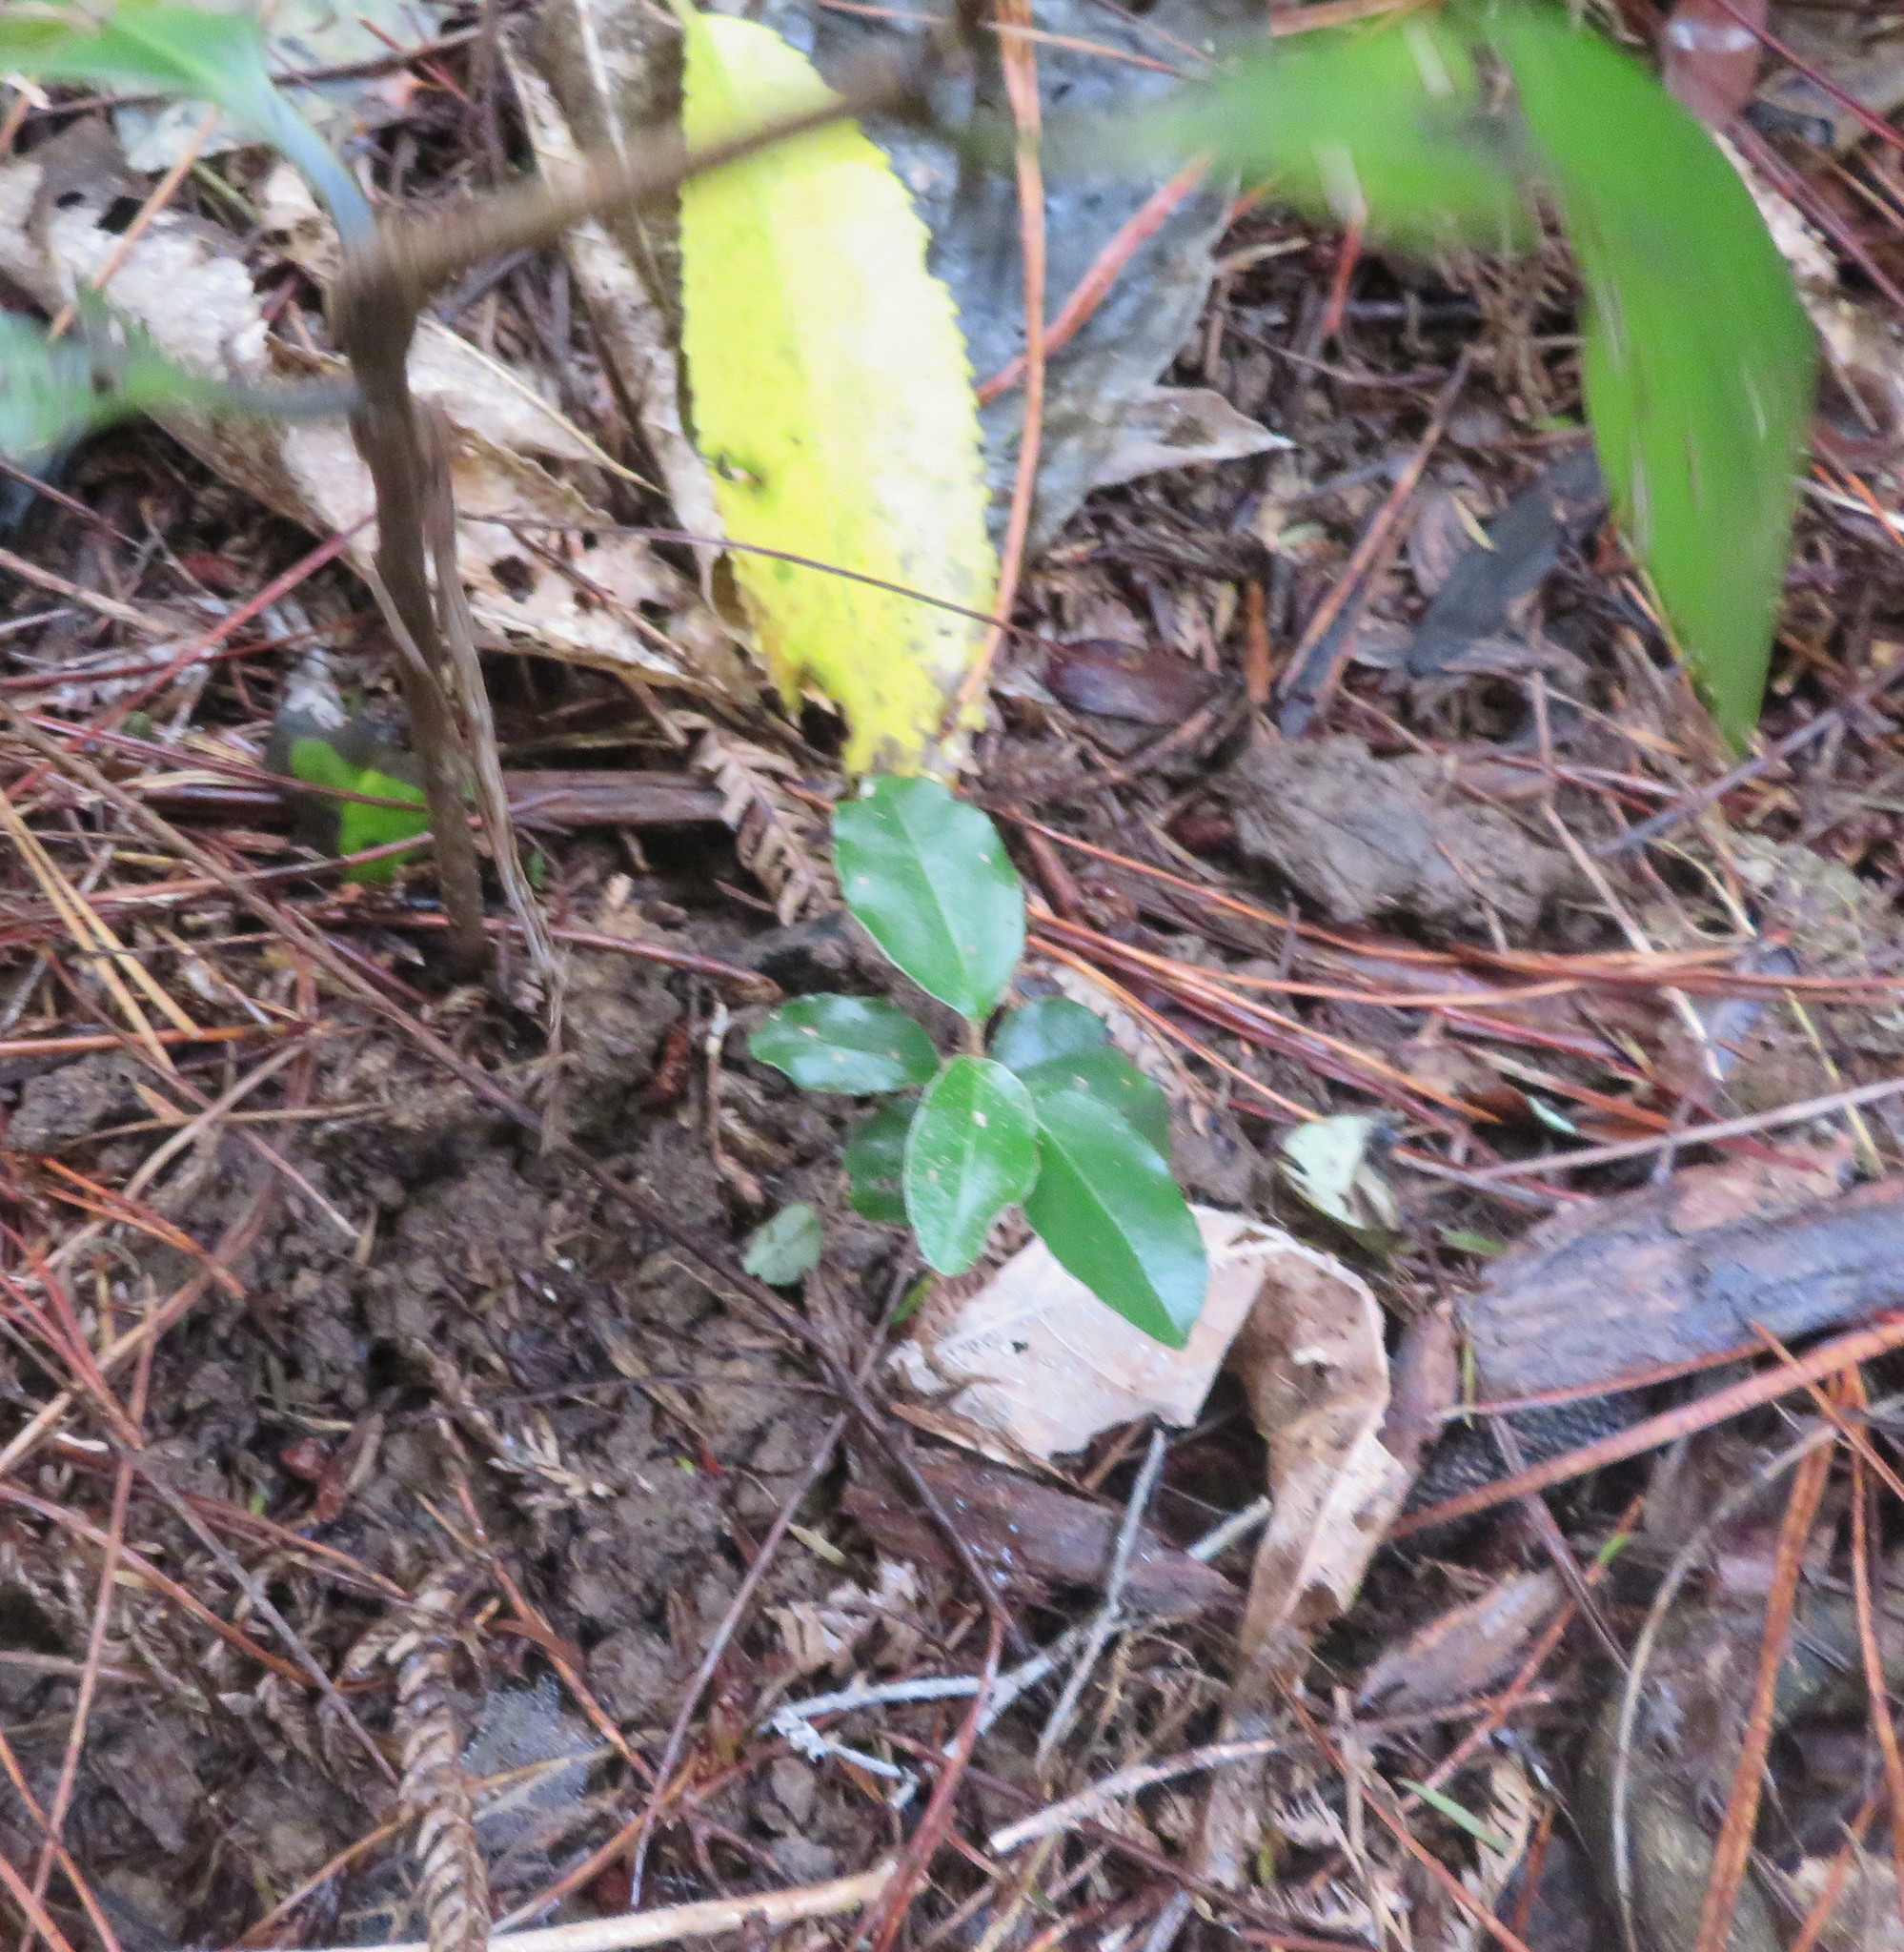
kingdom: Plantae
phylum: Tracheophyta
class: Magnoliopsida
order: Rosales
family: Elaeagnaceae
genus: Elaeagnus
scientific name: Elaeagnus reflexa
